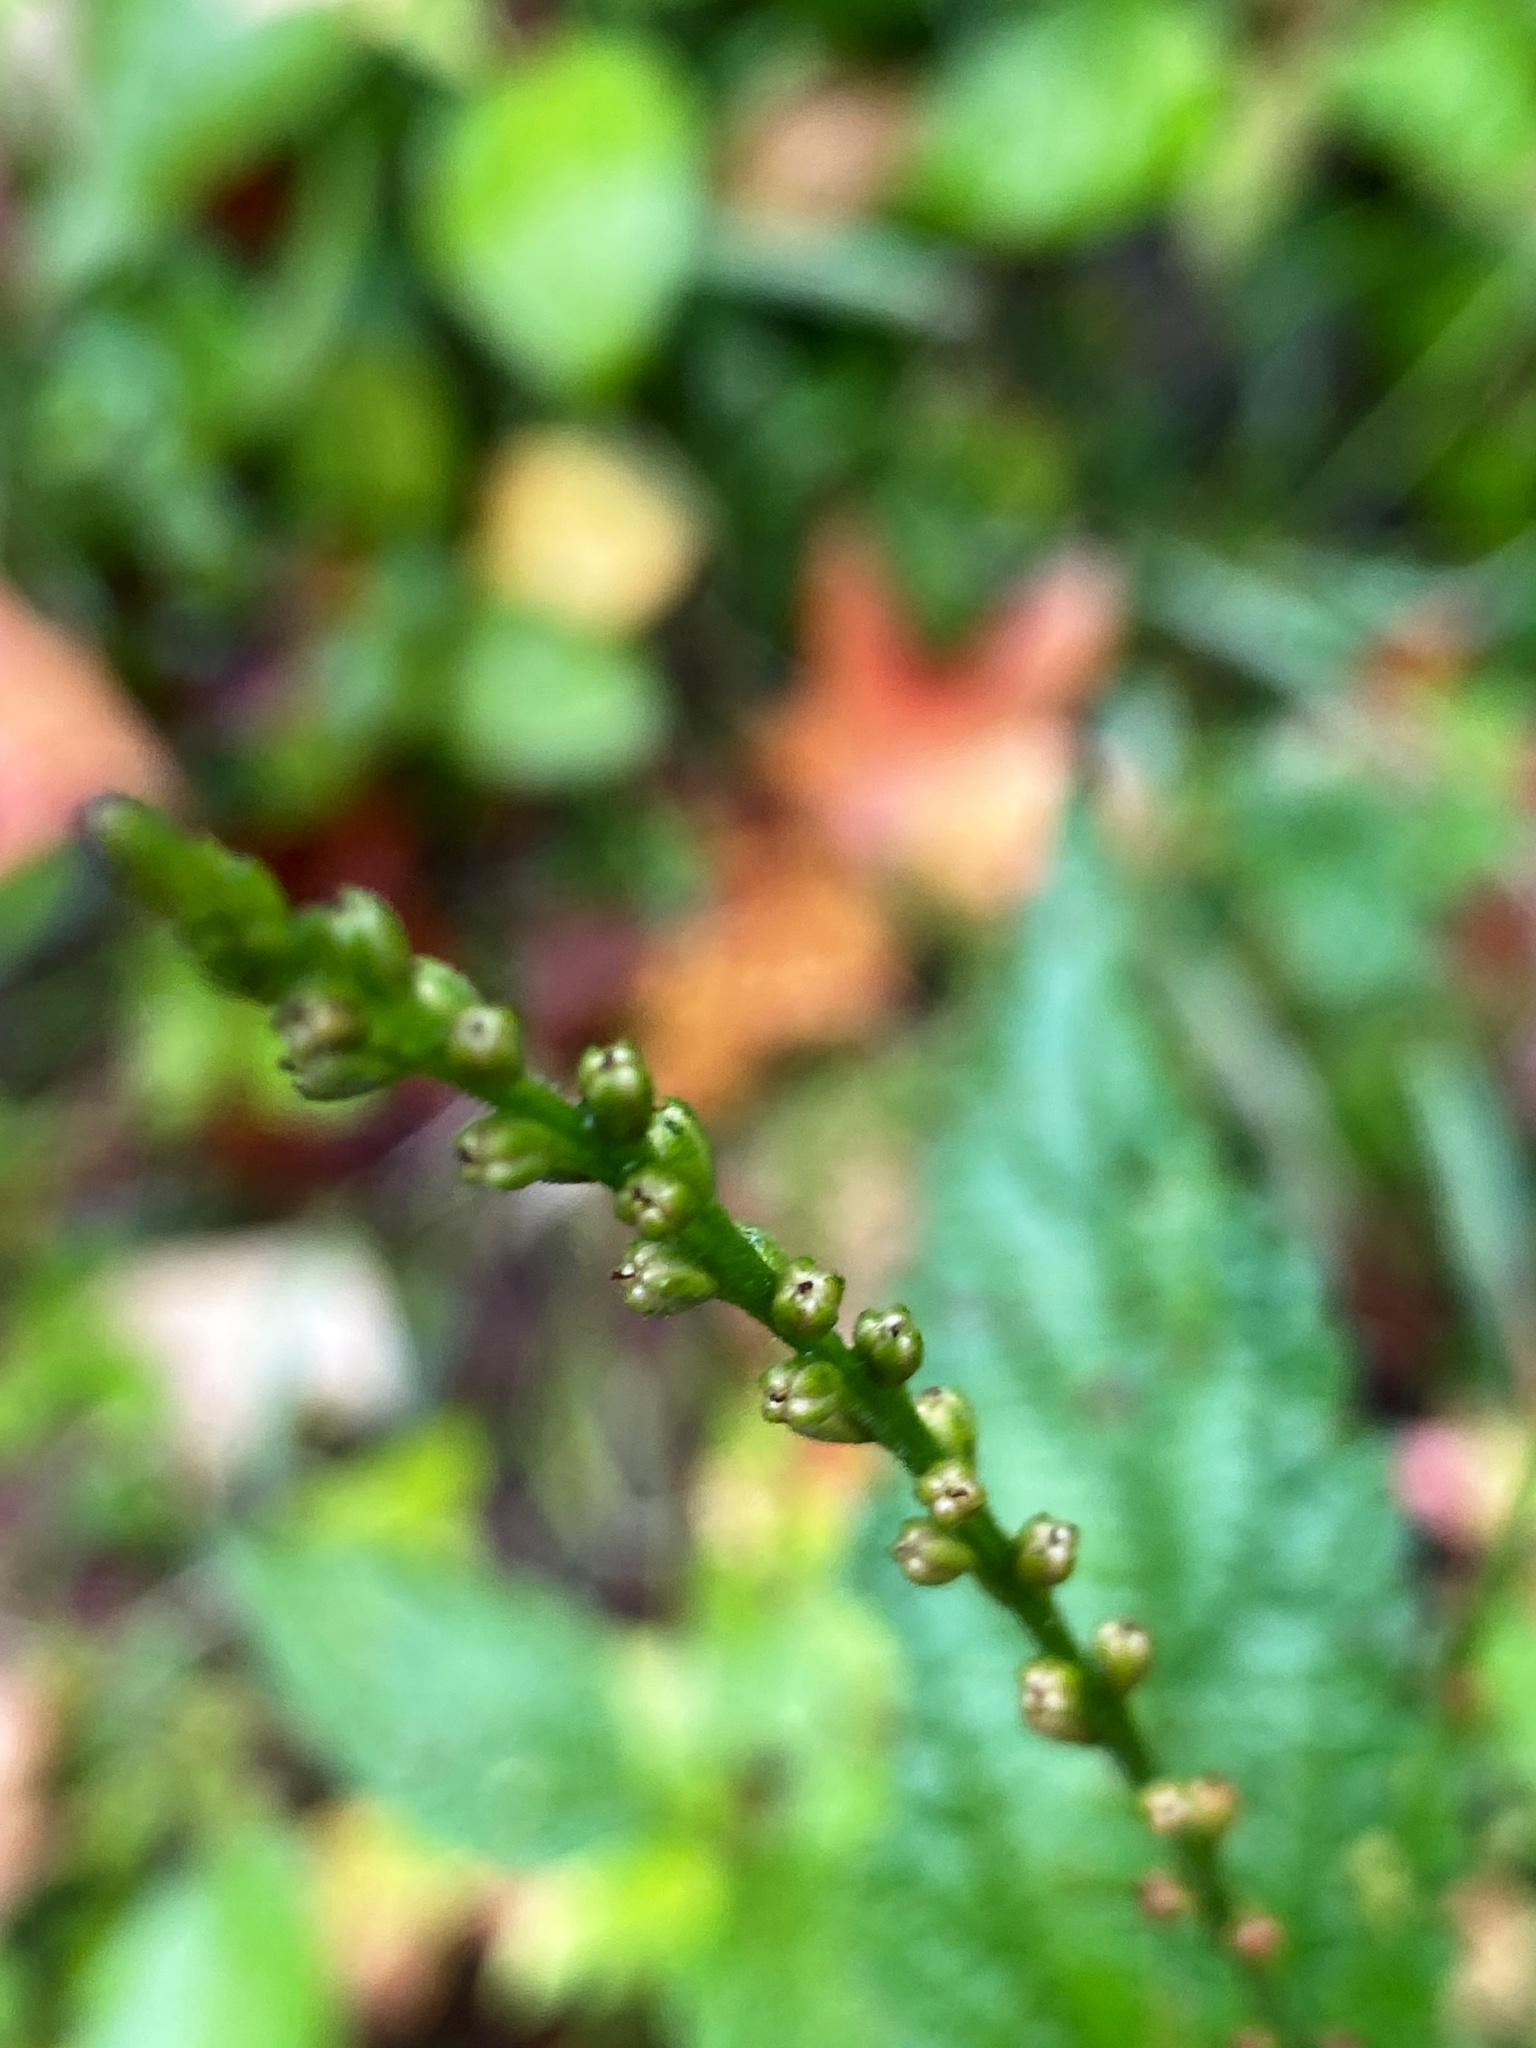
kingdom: Plantae
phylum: Tracheophyta
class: Magnoliopsida
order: Lamiales
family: Verbenaceae
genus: Verbena
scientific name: Verbena urticifolia
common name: Nettle-leaved vervain
